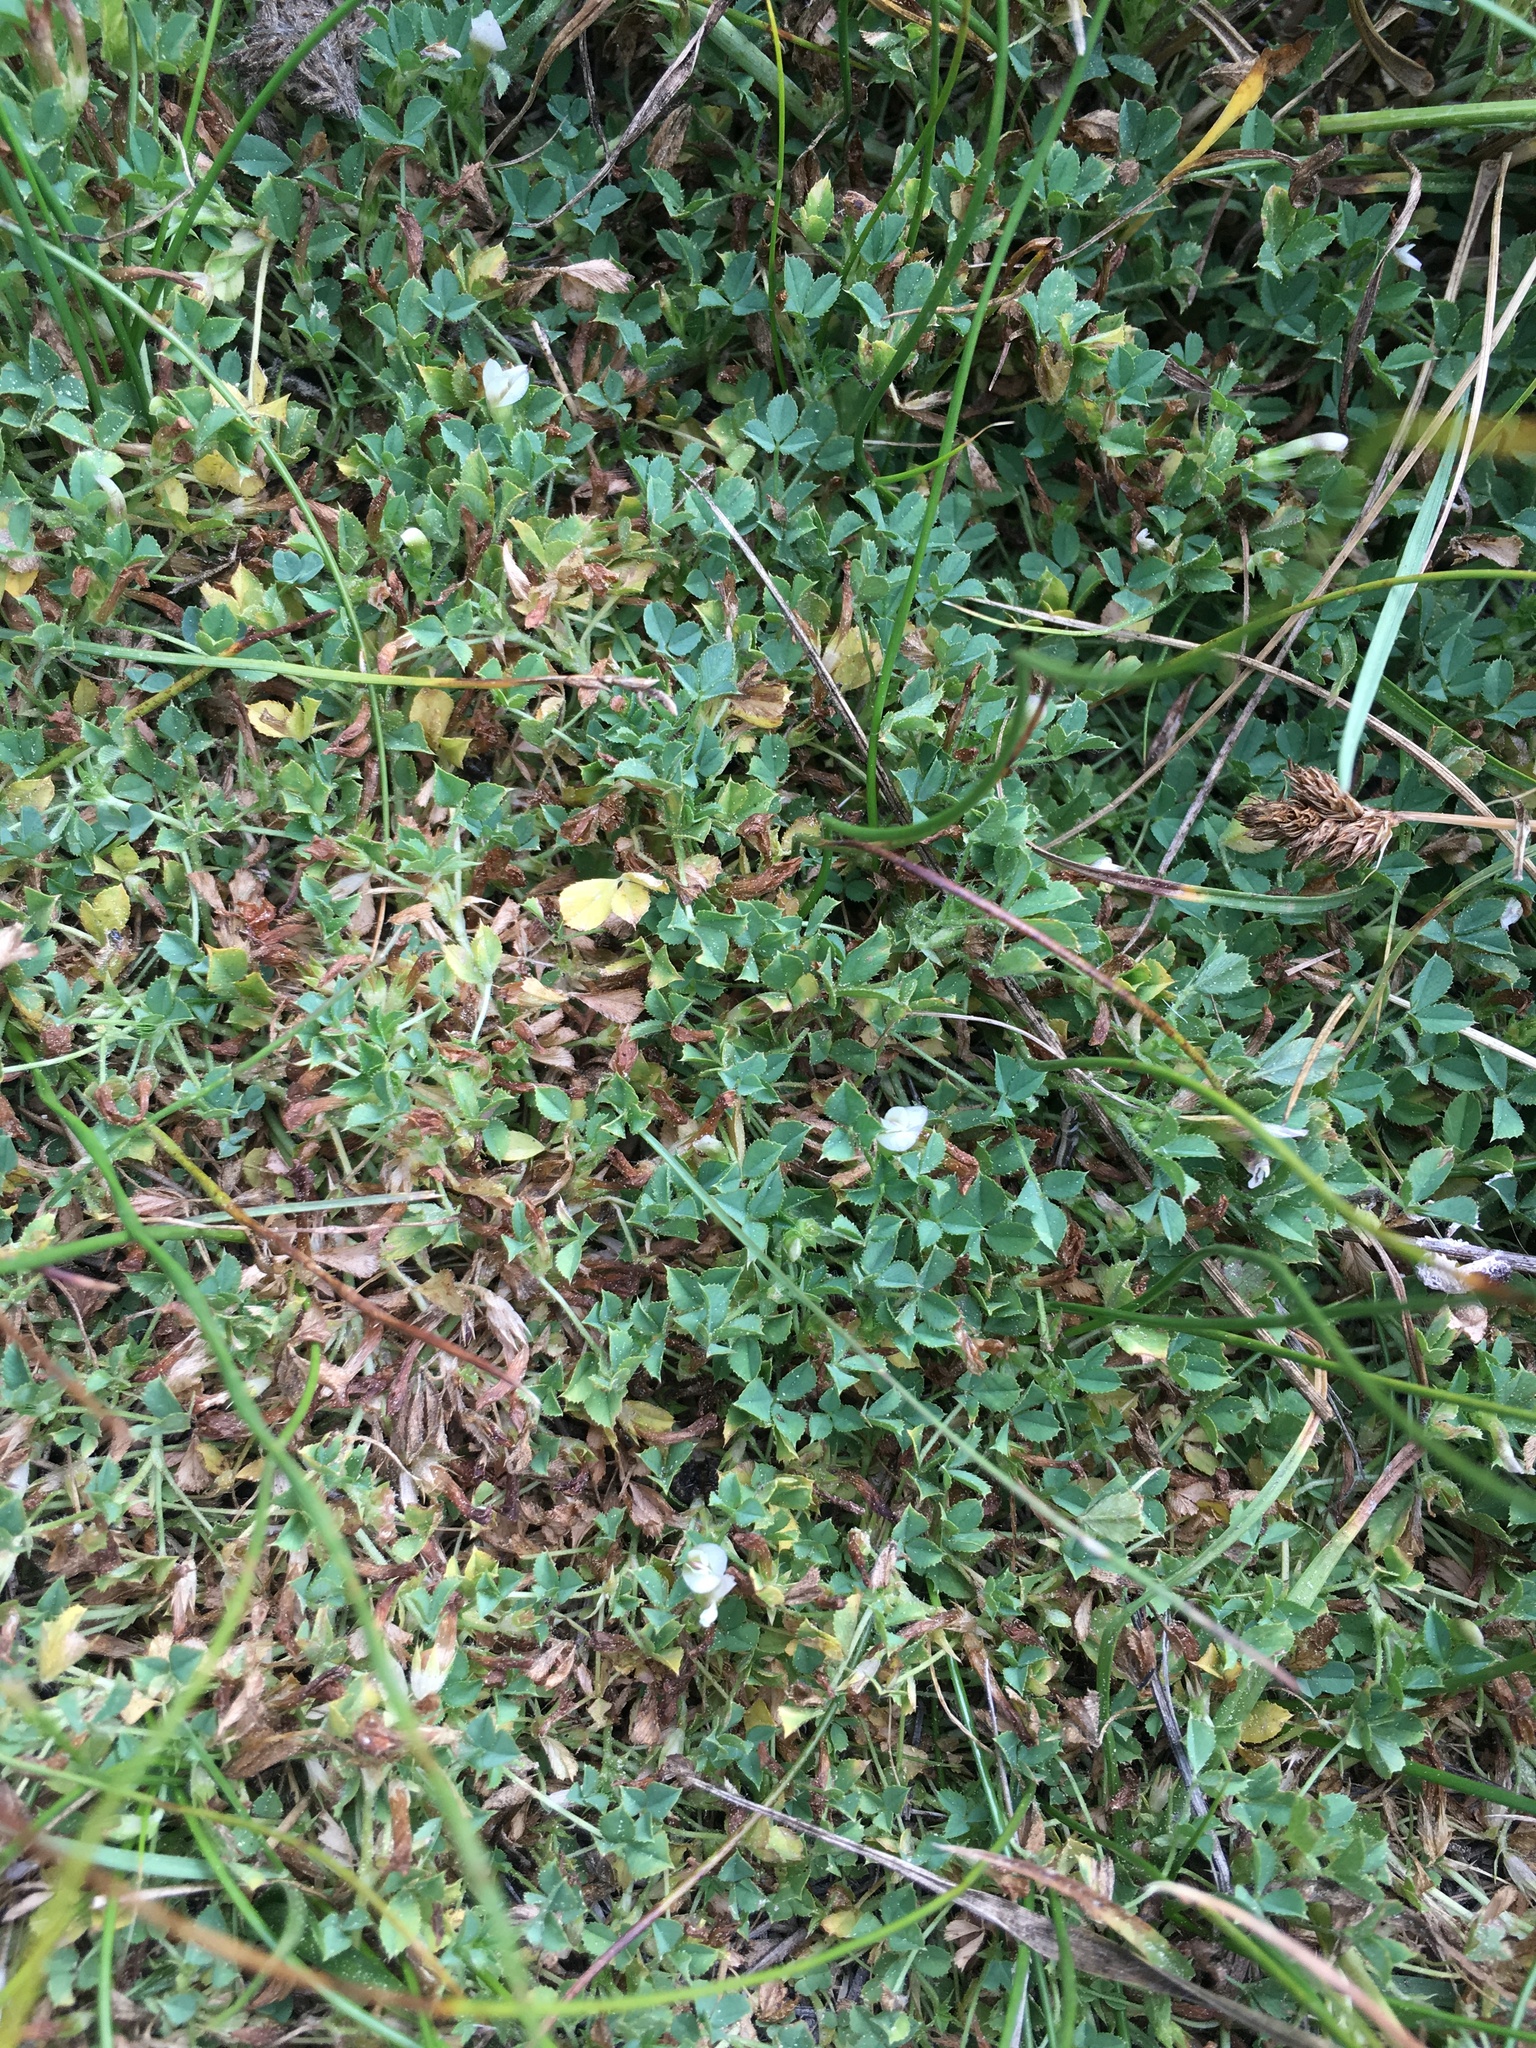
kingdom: Plantae
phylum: Tracheophyta
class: Magnoliopsida
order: Fabales
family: Fabaceae
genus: Trifolium
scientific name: Trifolium monanthum
